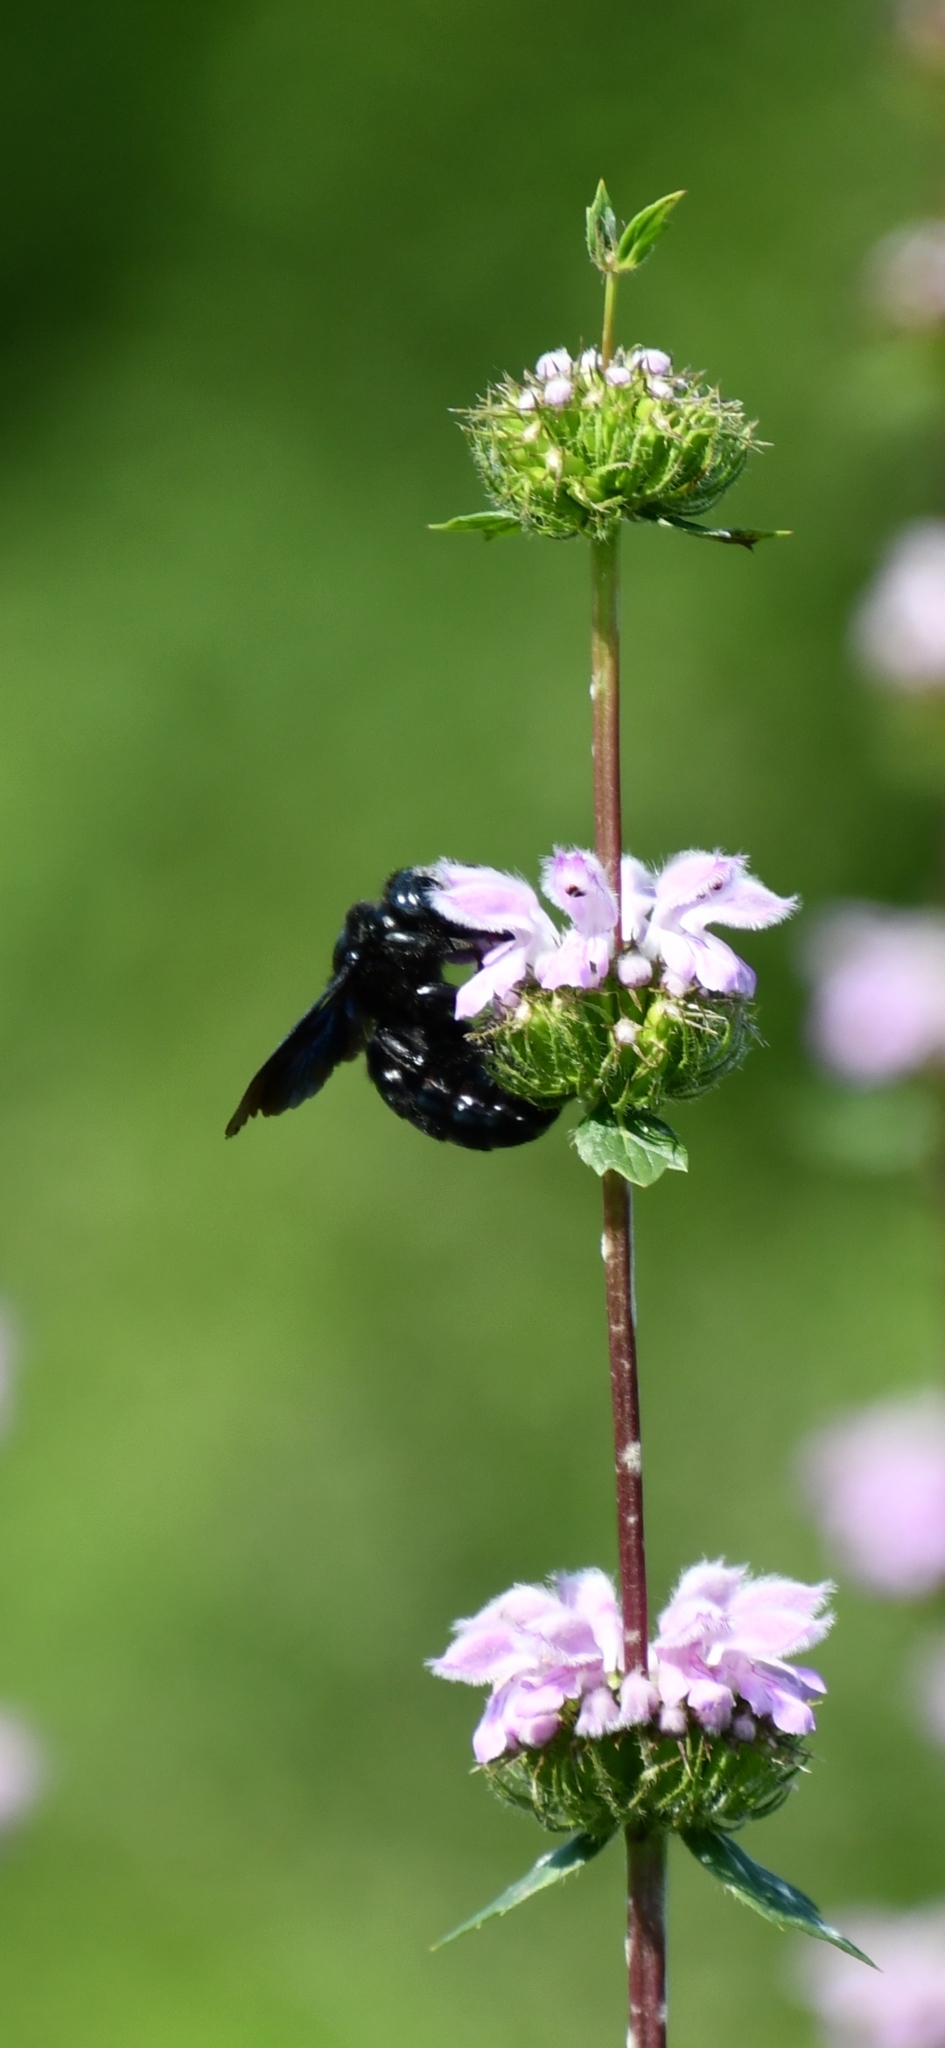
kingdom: Animalia
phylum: Arthropoda
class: Insecta
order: Hymenoptera
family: Apidae
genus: Xylocopa
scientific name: Xylocopa violacea
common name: Violet carpenter bee
